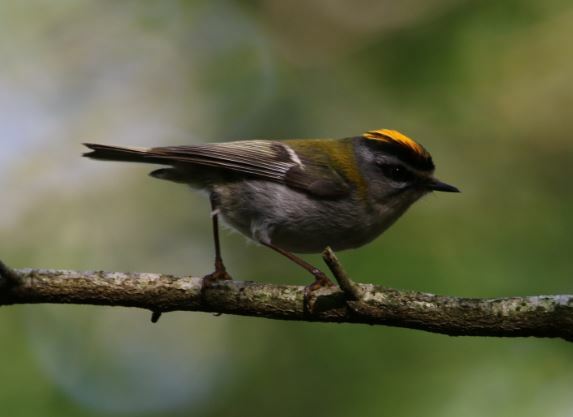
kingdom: Animalia
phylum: Chordata
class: Aves
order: Passeriformes
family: Regulidae
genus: Regulus
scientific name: Regulus ignicapilla
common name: Firecrest
